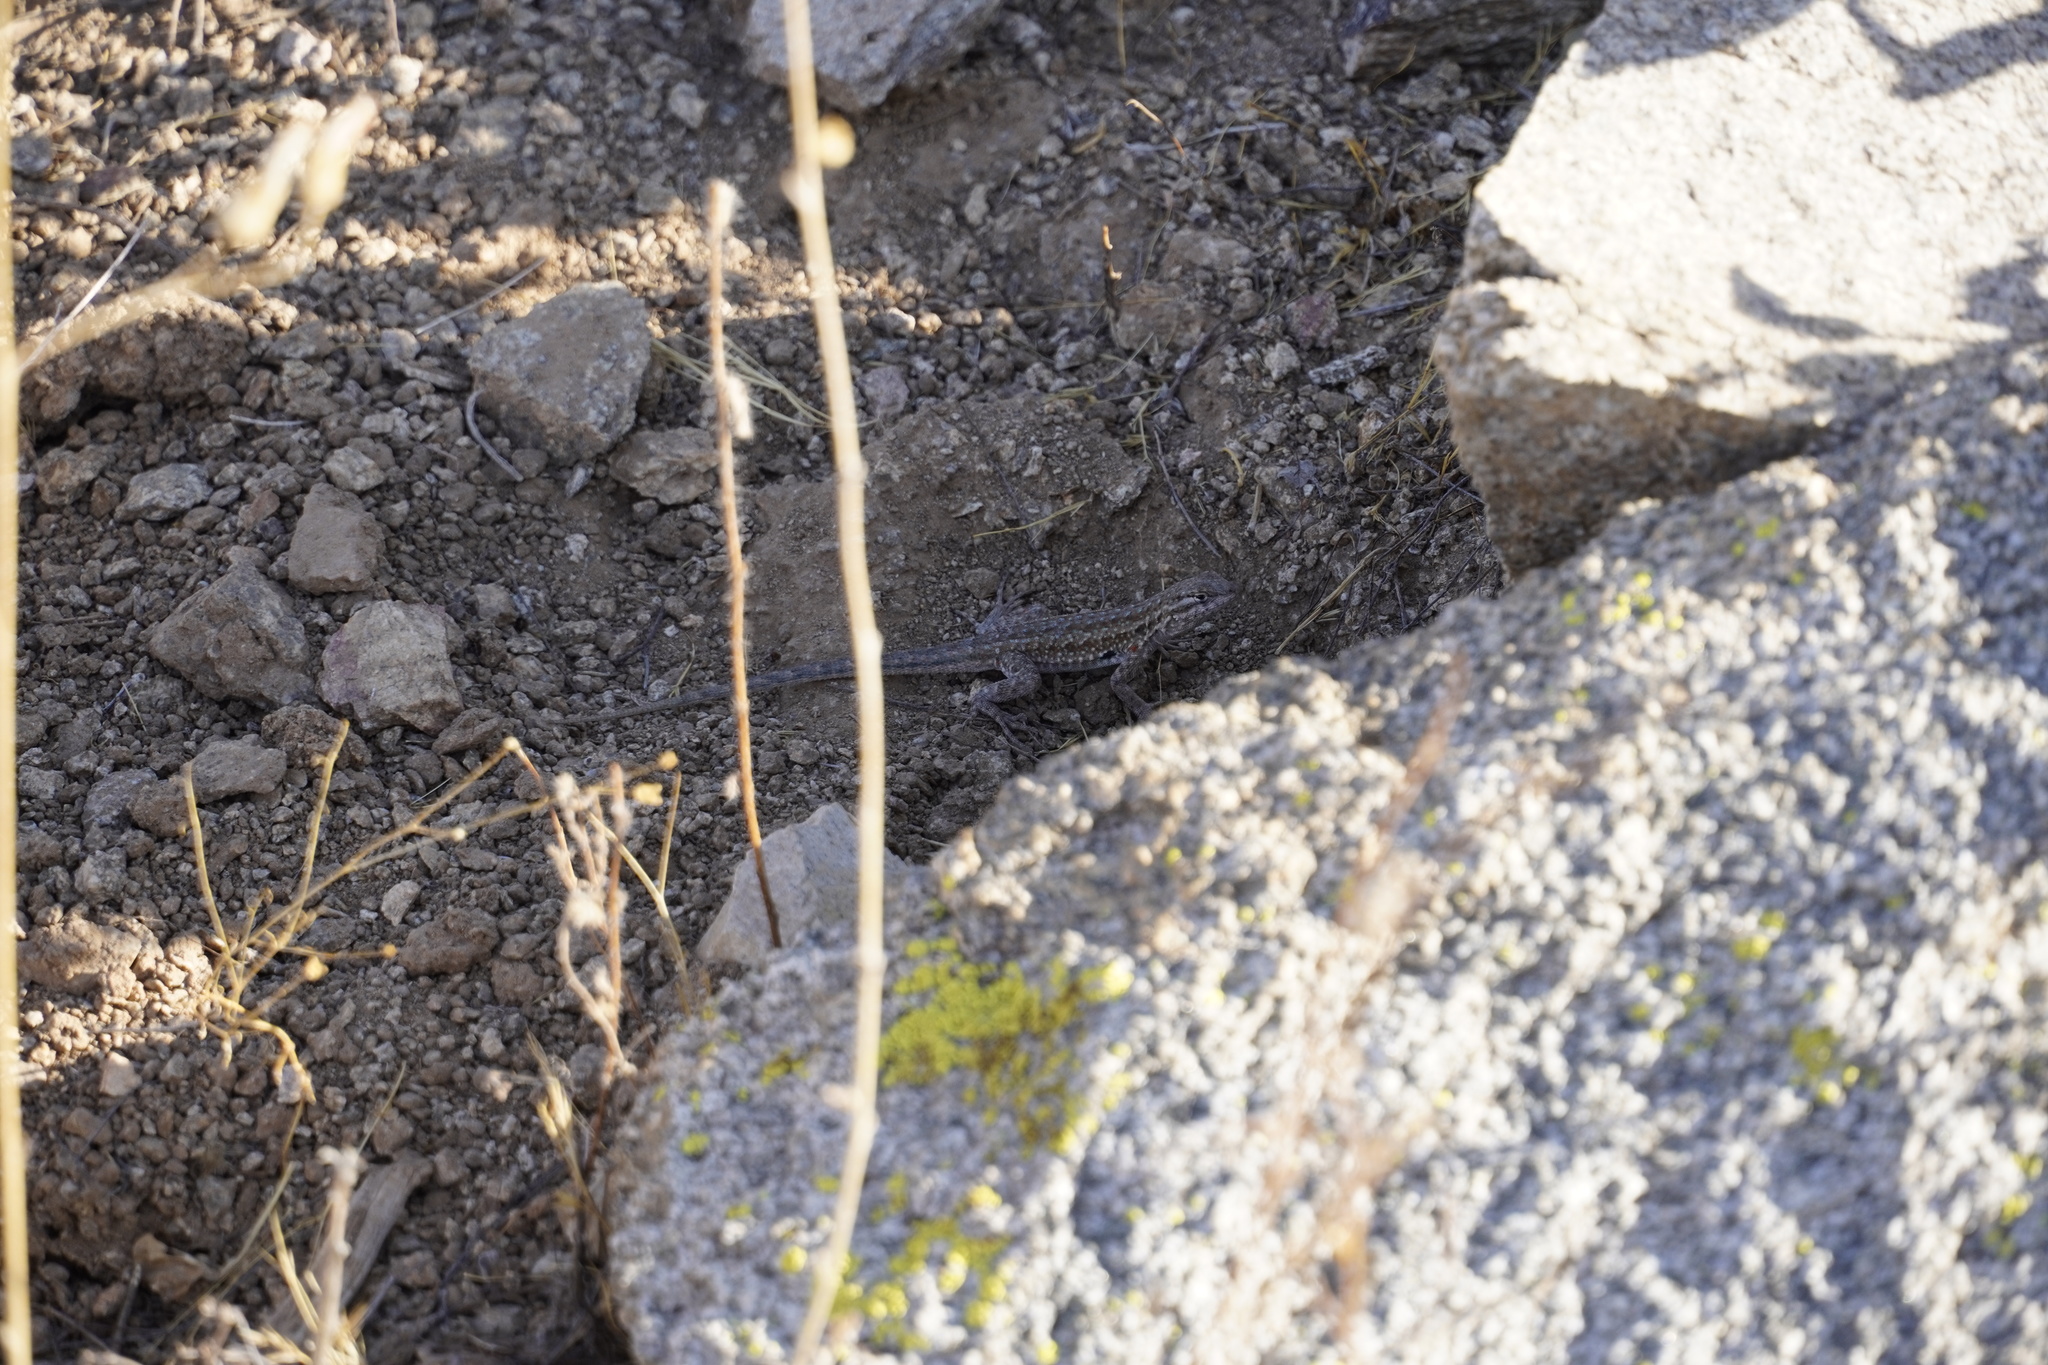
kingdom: Animalia
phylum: Chordata
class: Squamata
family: Phrynosomatidae
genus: Uta
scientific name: Uta stansburiana
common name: Side-blotched lizard
